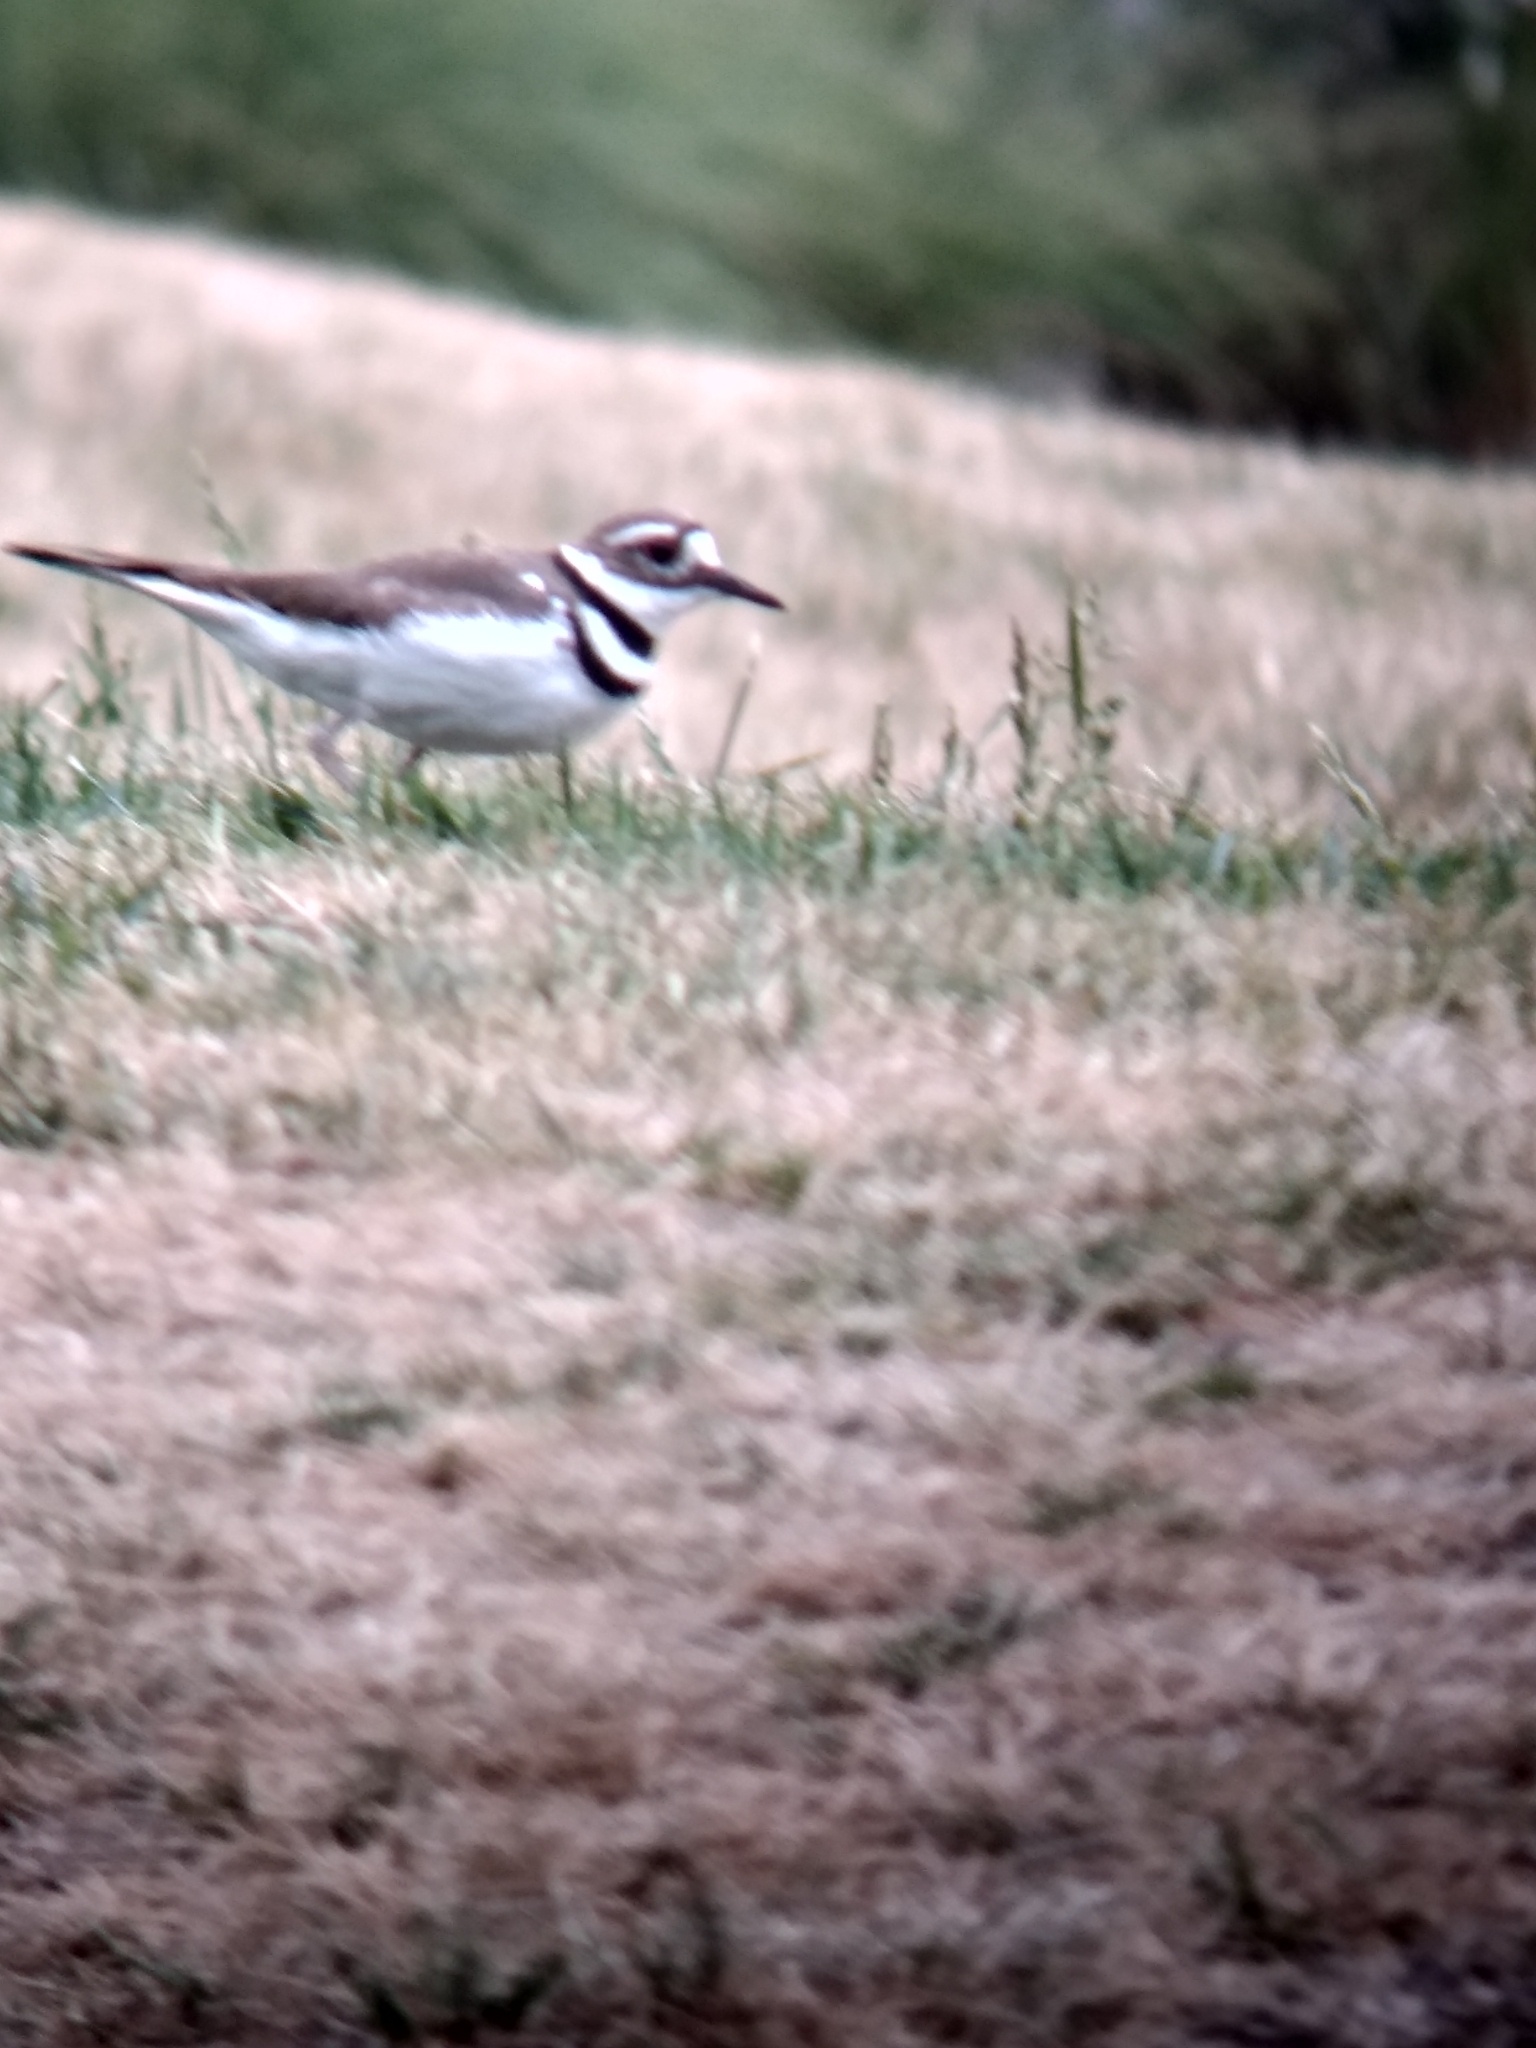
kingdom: Animalia
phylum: Chordata
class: Aves
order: Charadriiformes
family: Charadriidae
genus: Charadrius
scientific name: Charadrius vociferus
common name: Killdeer
